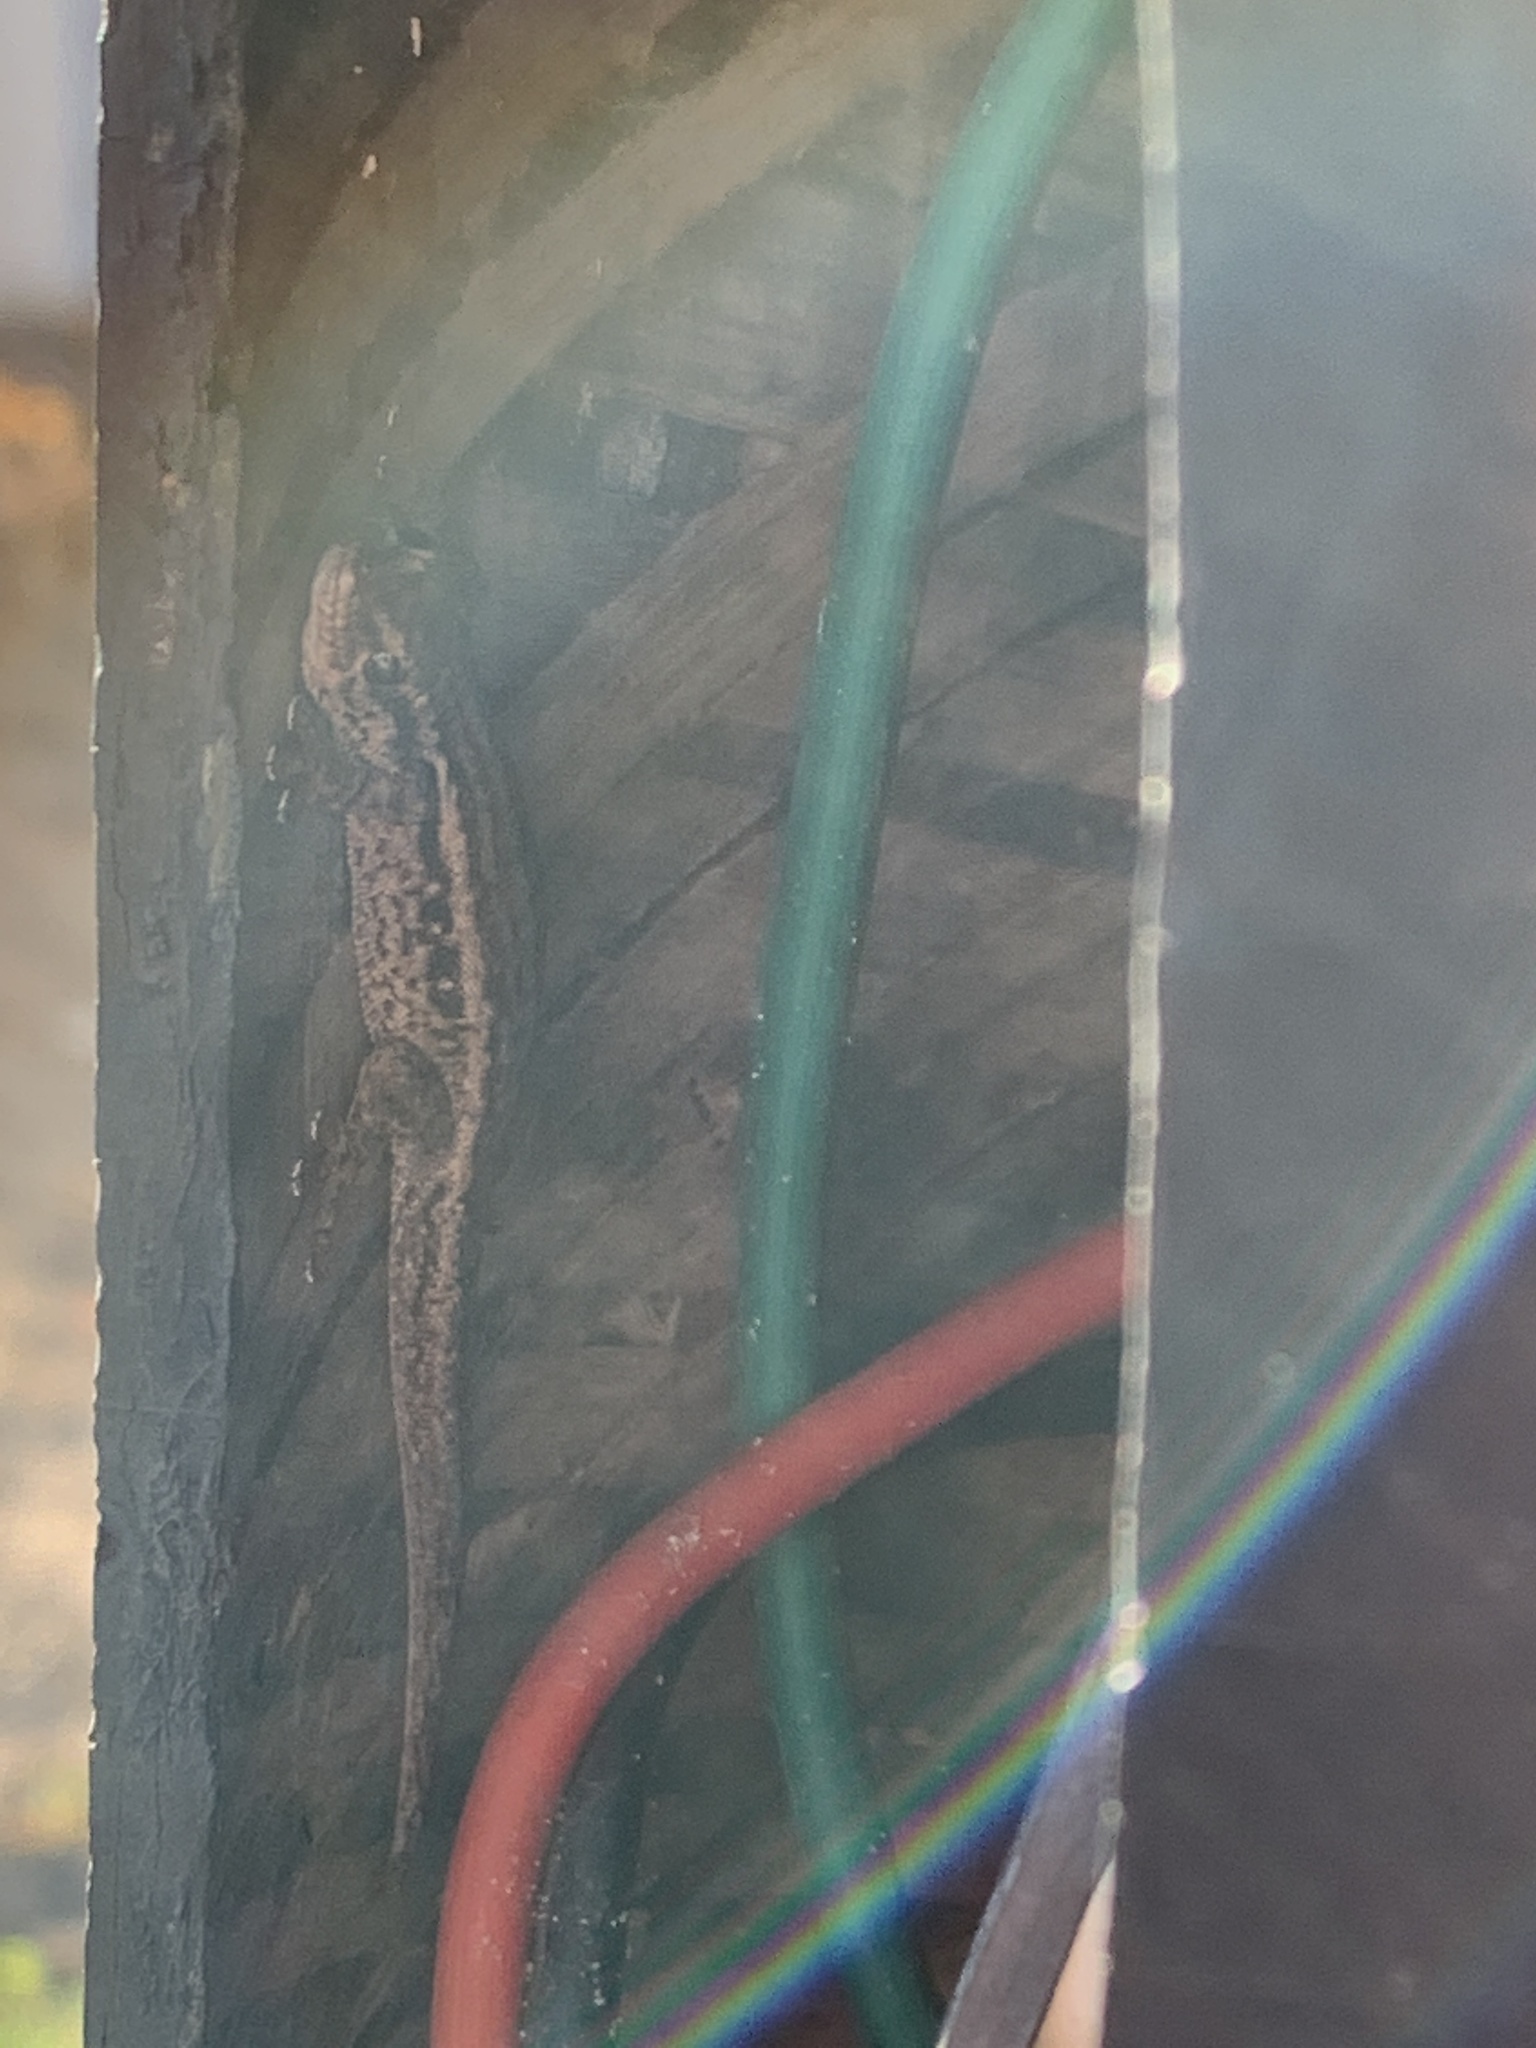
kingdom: Animalia
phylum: Chordata
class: Squamata
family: Gekkonidae
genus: Lygodactylus
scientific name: Lygodactylus capensis
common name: Cape dwarf gecko
